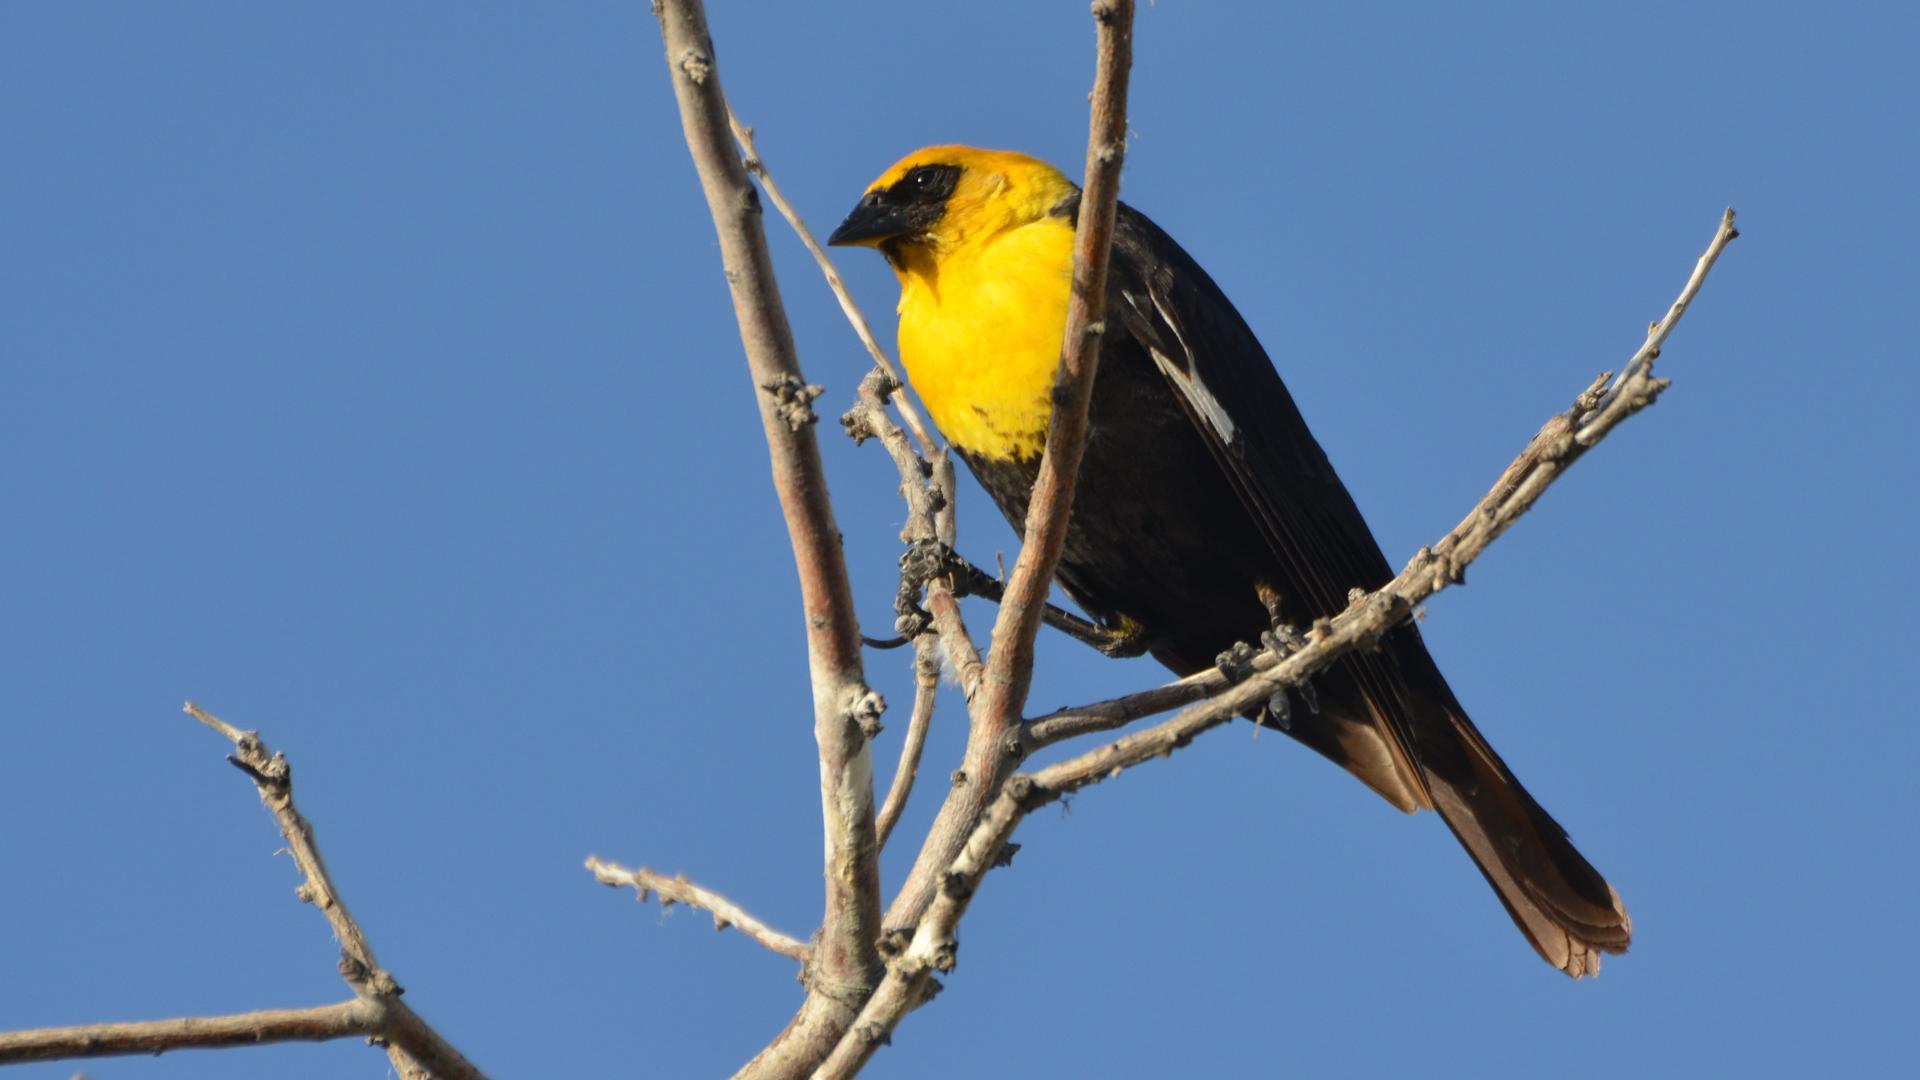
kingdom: Animalia
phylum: Chordata
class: Aves
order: Passeriformes
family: Icteridae
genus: Xanthocephalus
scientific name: Xanthocephalus xanthocephalus
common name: Yellow-headed blackbird
